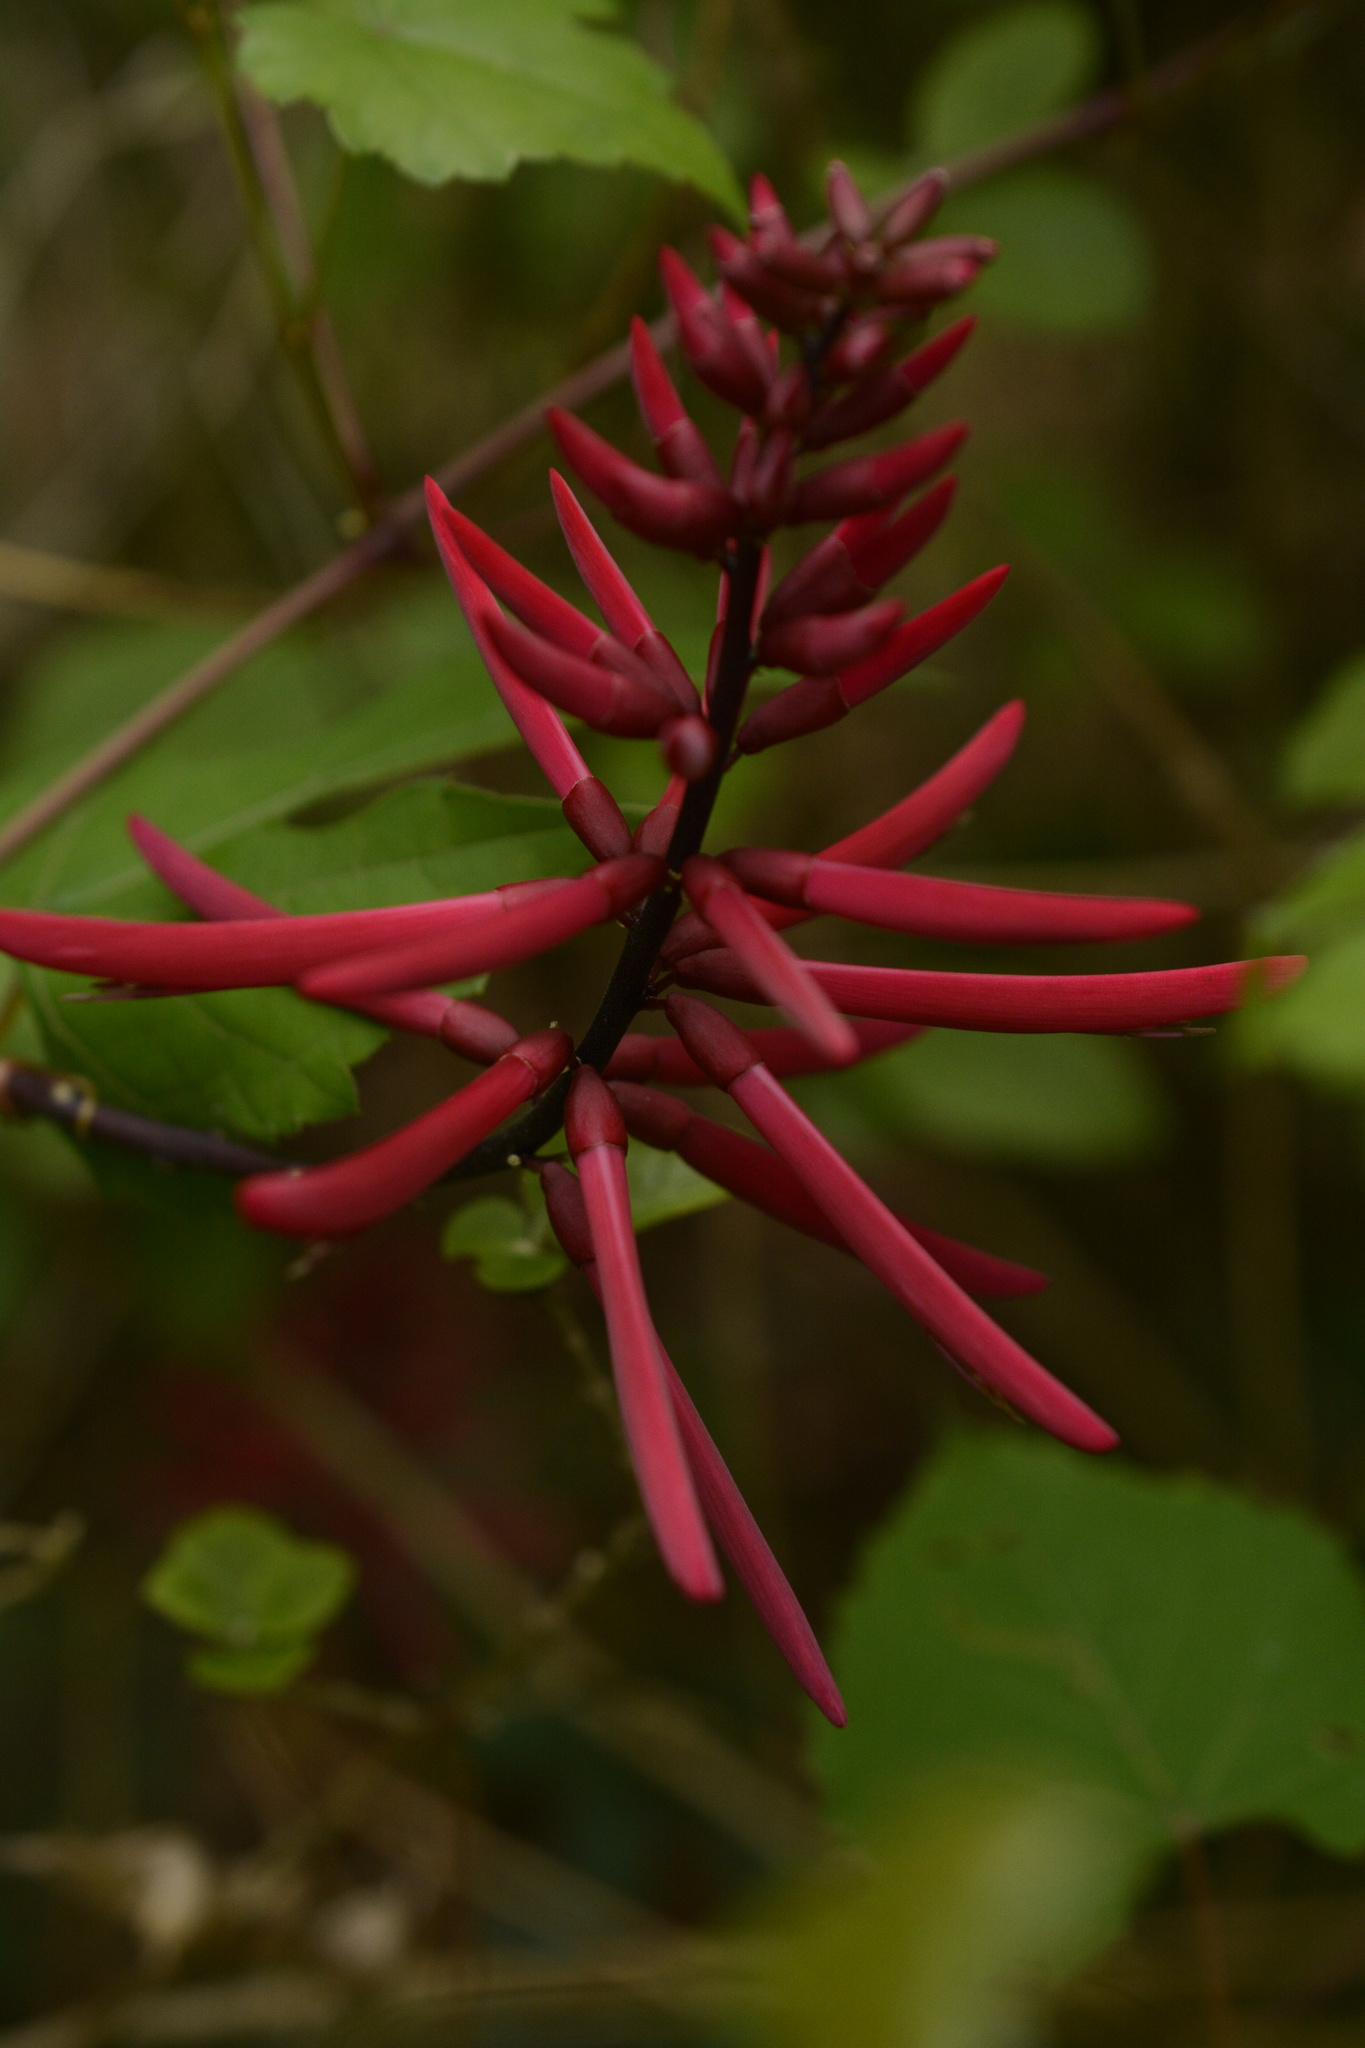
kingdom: Plantae
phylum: Tracheophyta
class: Magnoliopsida
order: Fabales
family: Fabaceae
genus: Erythrina
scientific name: Erythrina herbacea
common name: Coral-bean
